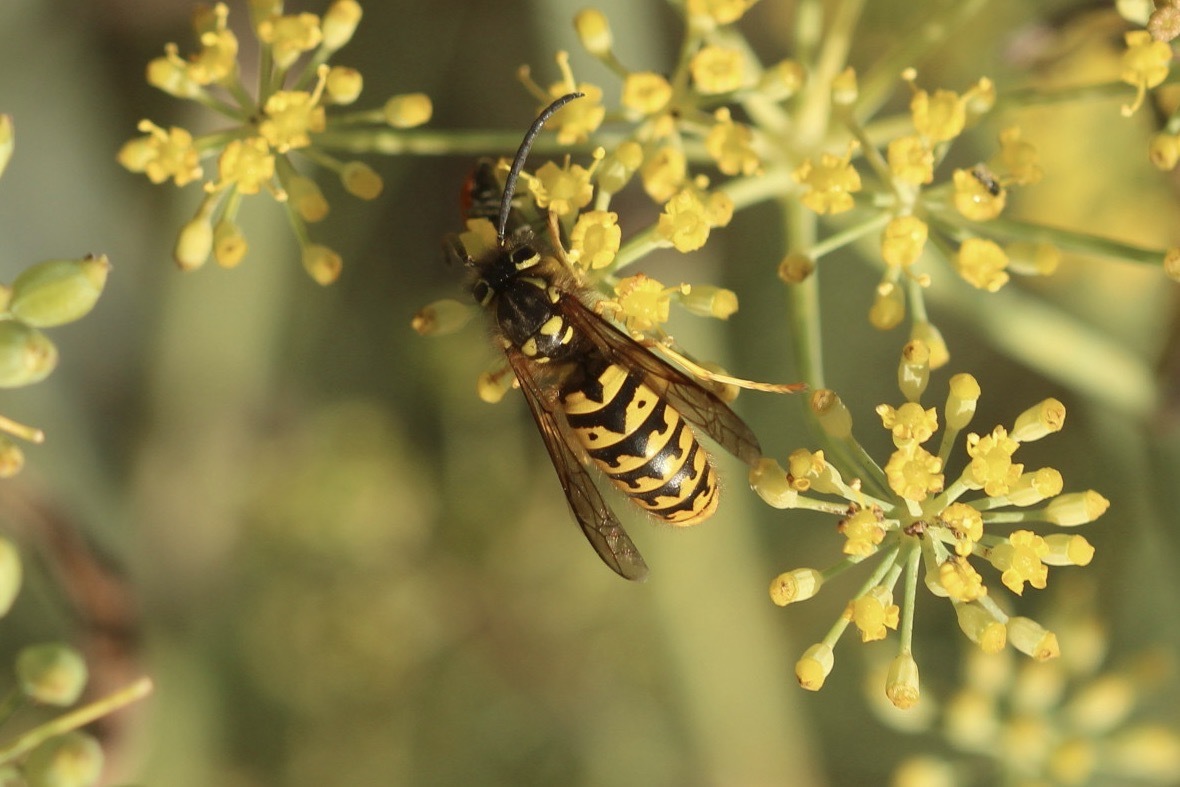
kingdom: Animalia
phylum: Arthropoda
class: Insecta
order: Hymenoptera
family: Vespidae
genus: Vespula
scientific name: Vespula pensylvanica
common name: Western yellowjacket
